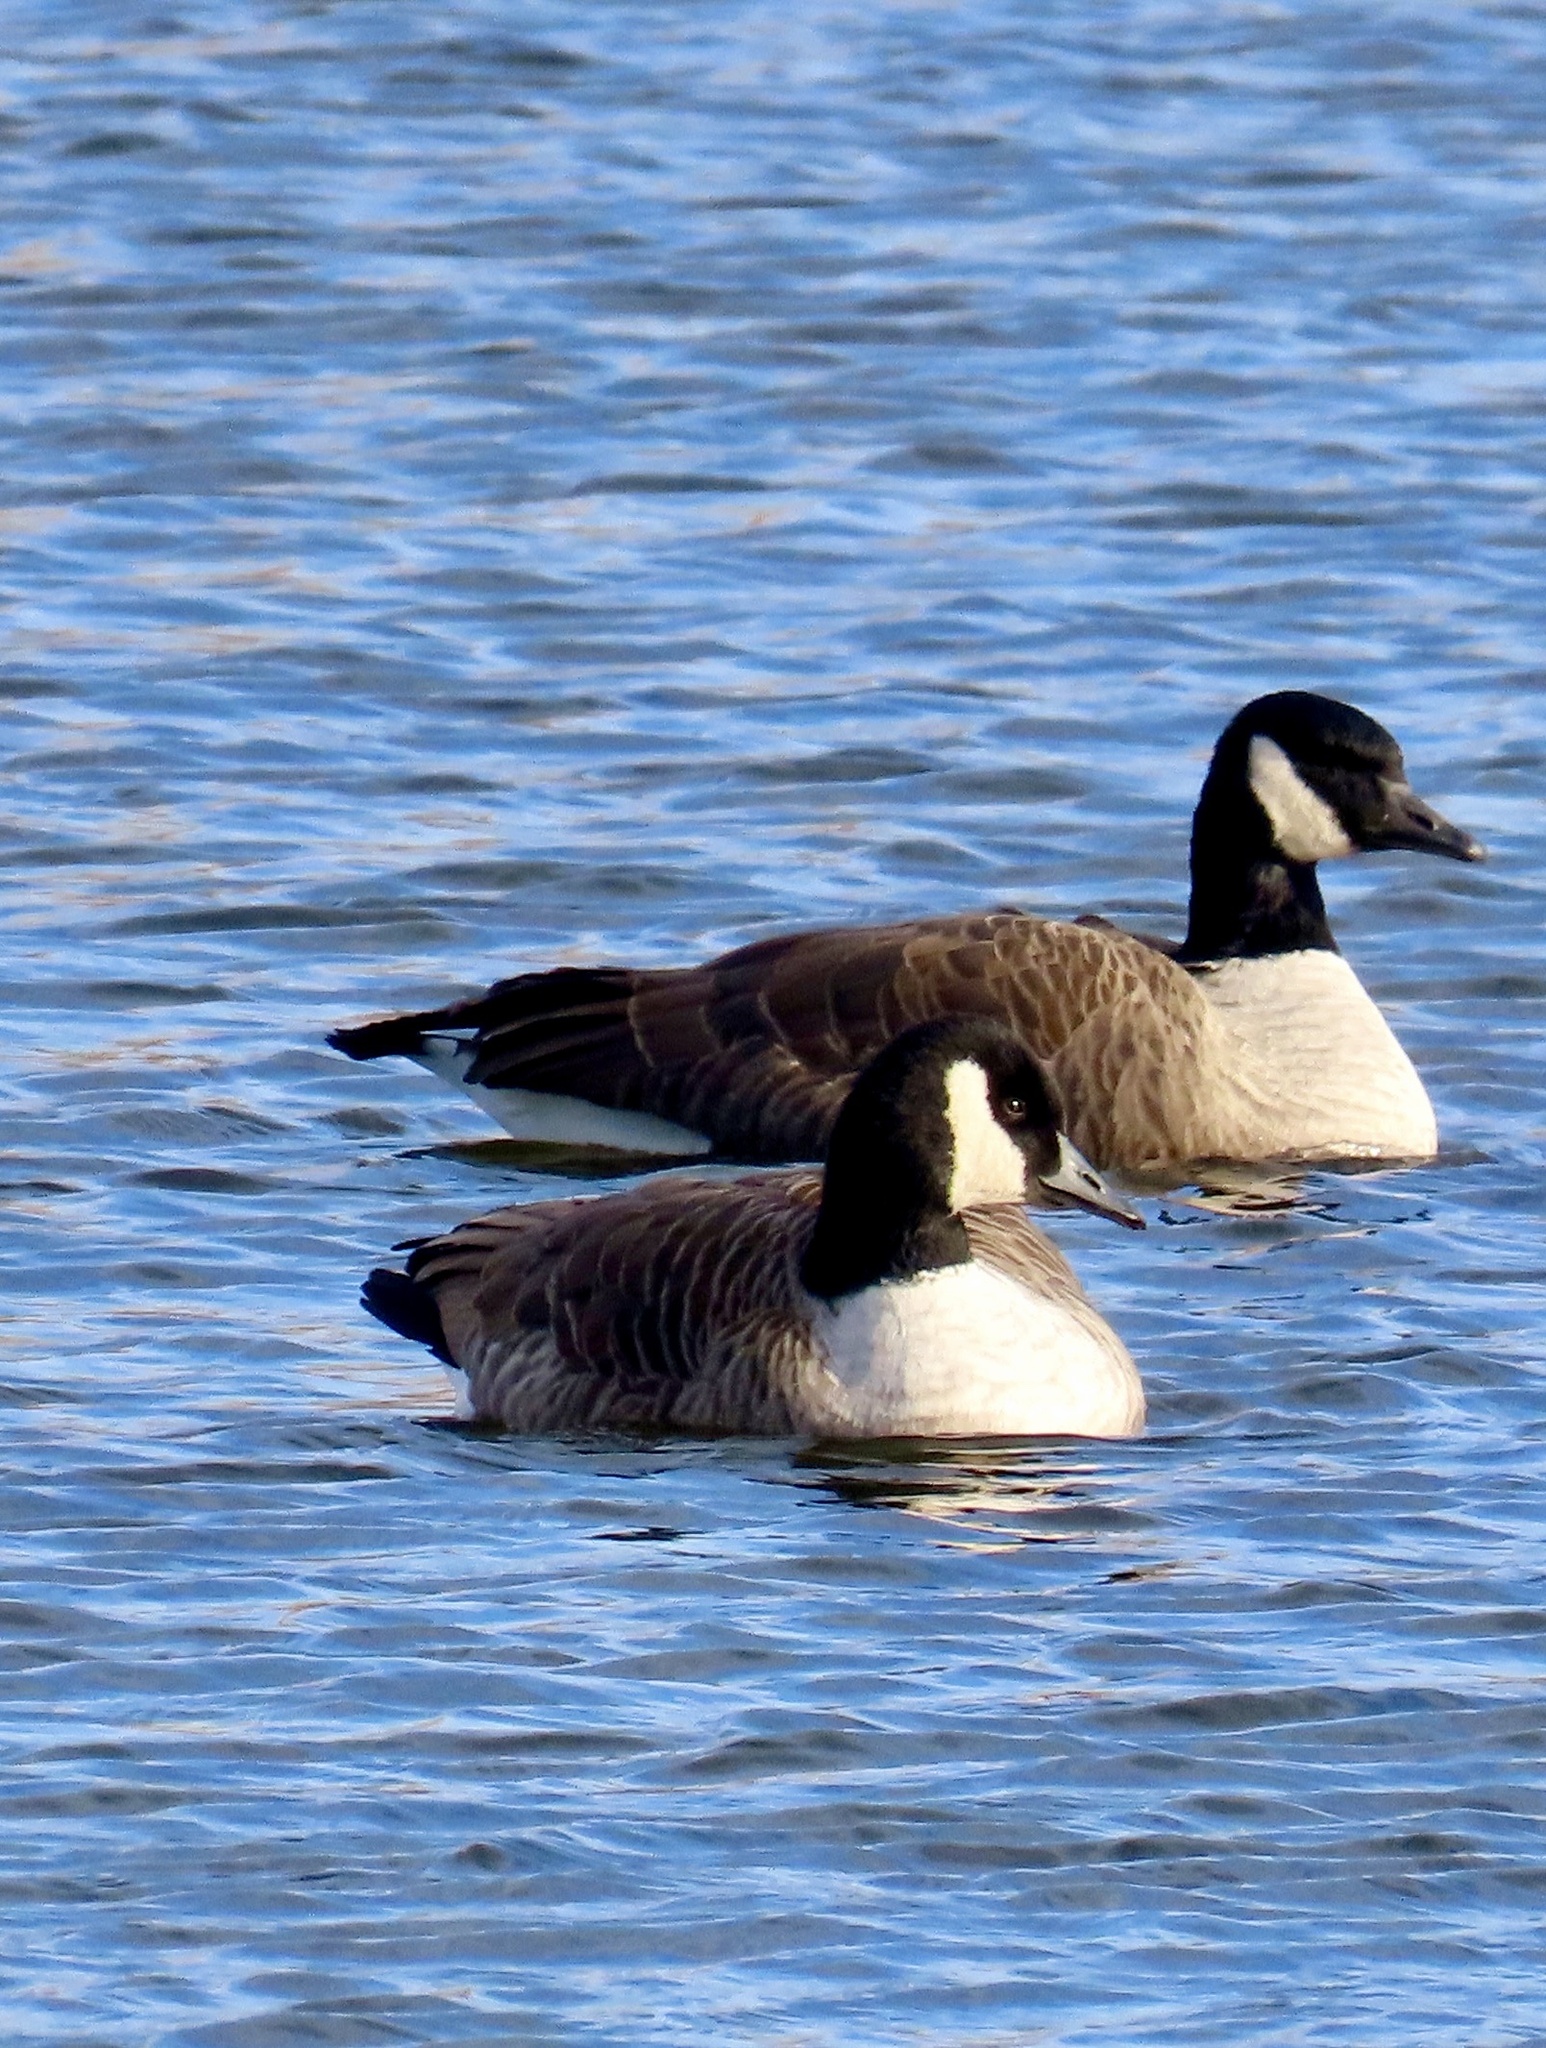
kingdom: Animalia
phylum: Chordata
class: Aves
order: Anseriformes
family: Anatidae
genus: Branta
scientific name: Branta canadensis
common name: Canada goose
